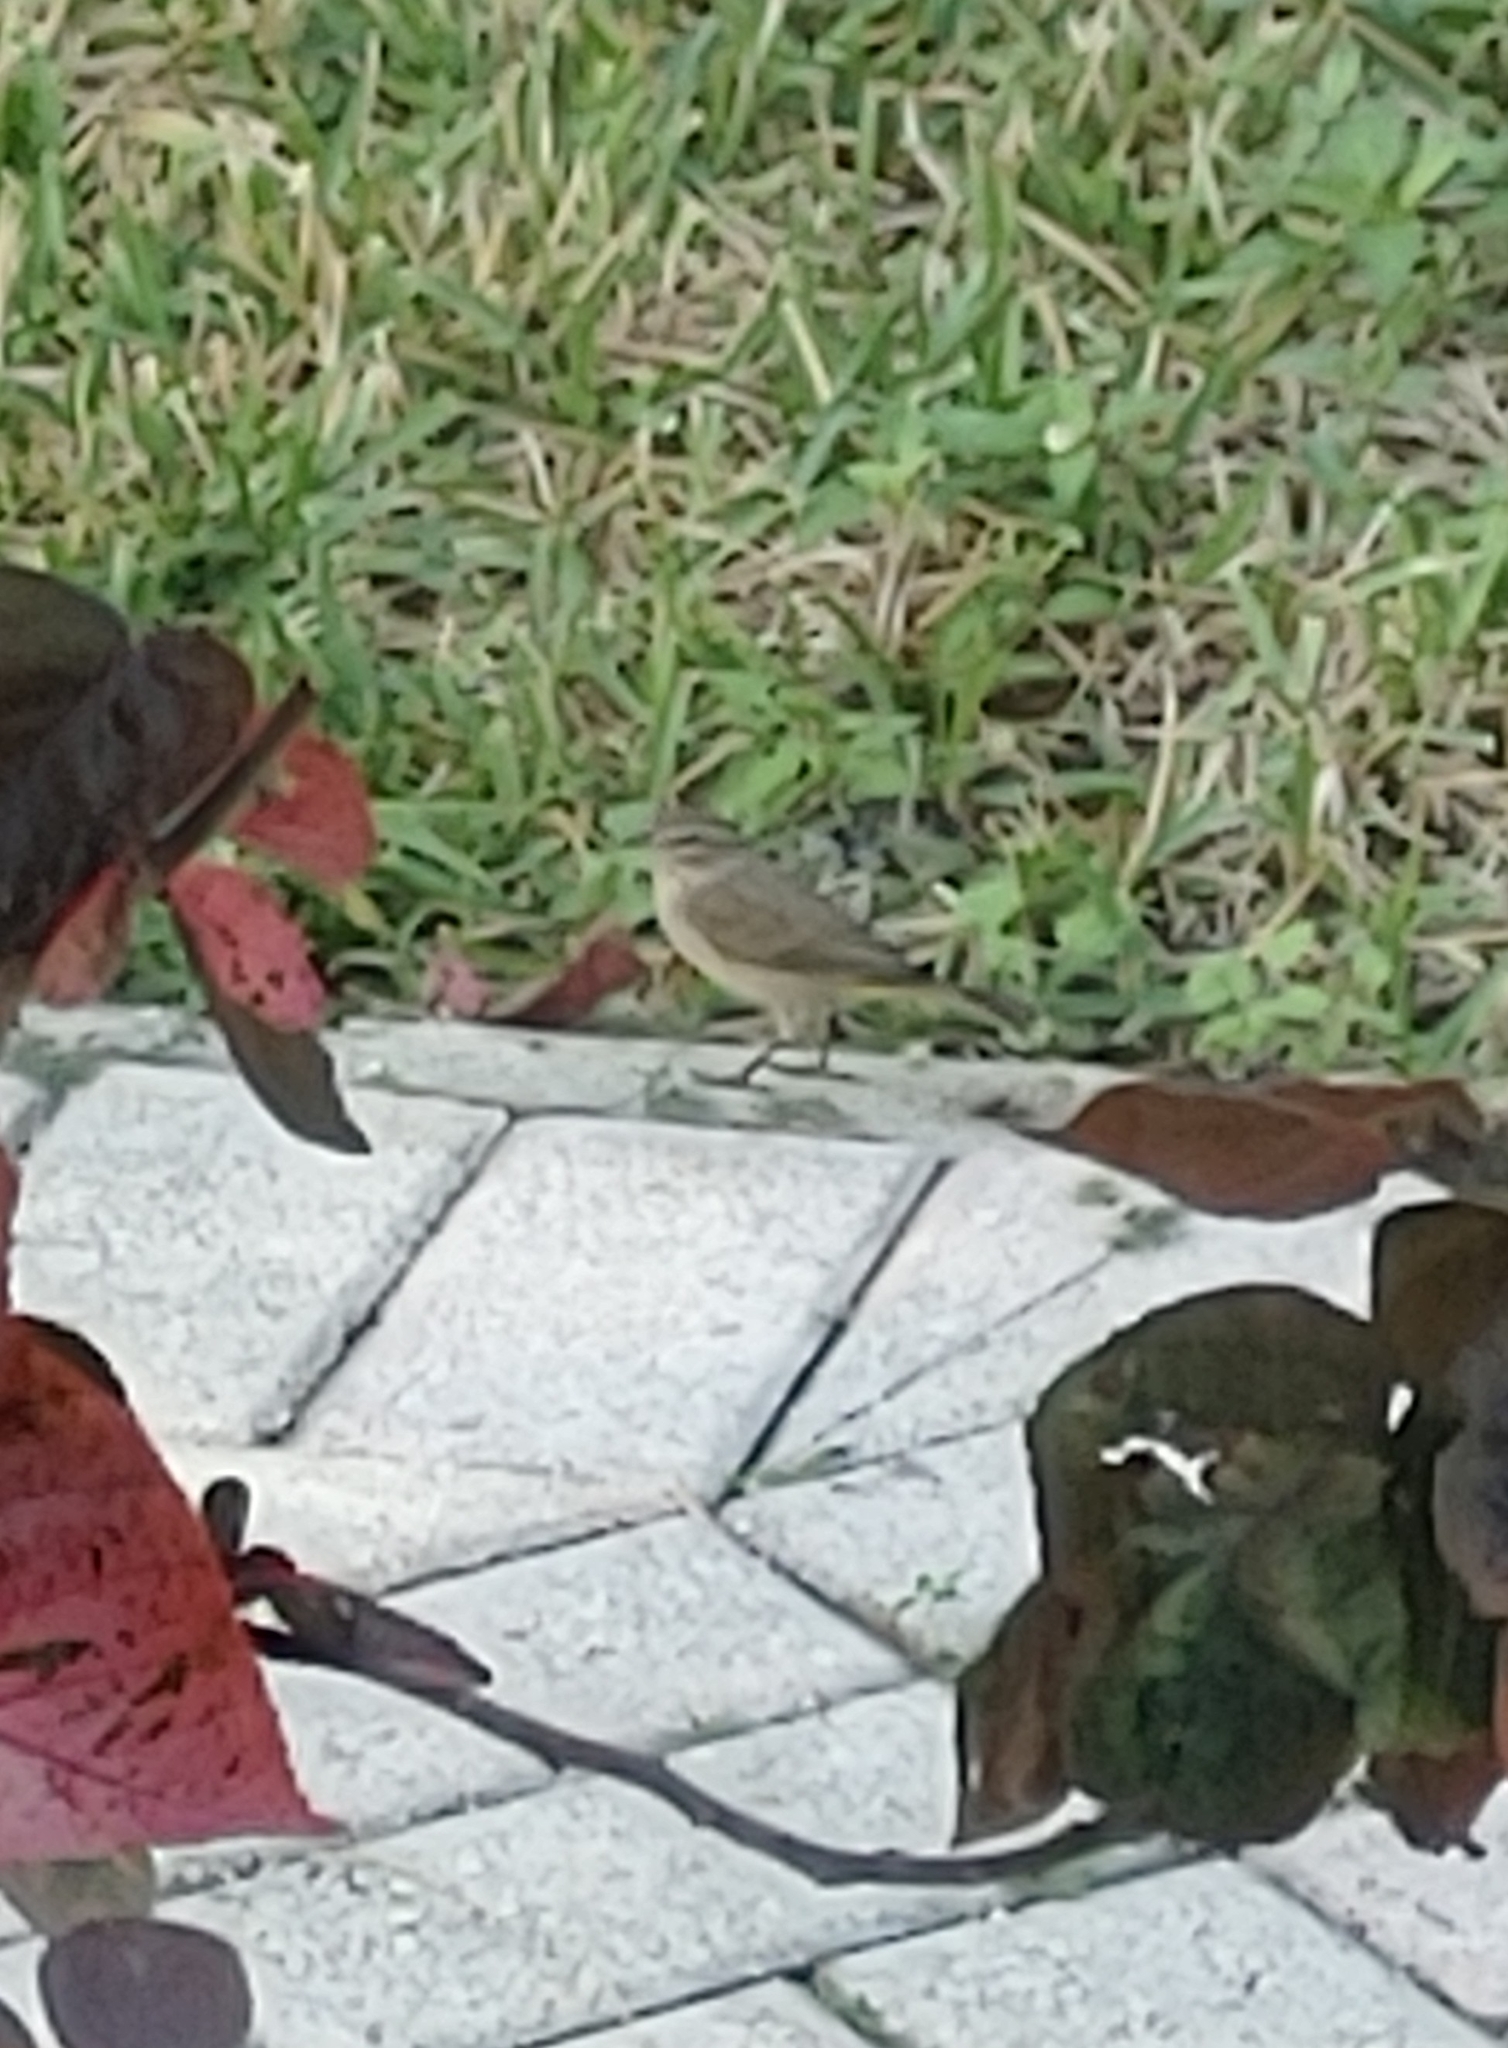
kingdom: Animalia
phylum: Chordata
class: Aves
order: Passeriformes
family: Parulidae
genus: Setophaga
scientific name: Setophaga palmarum
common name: Palm warbler
